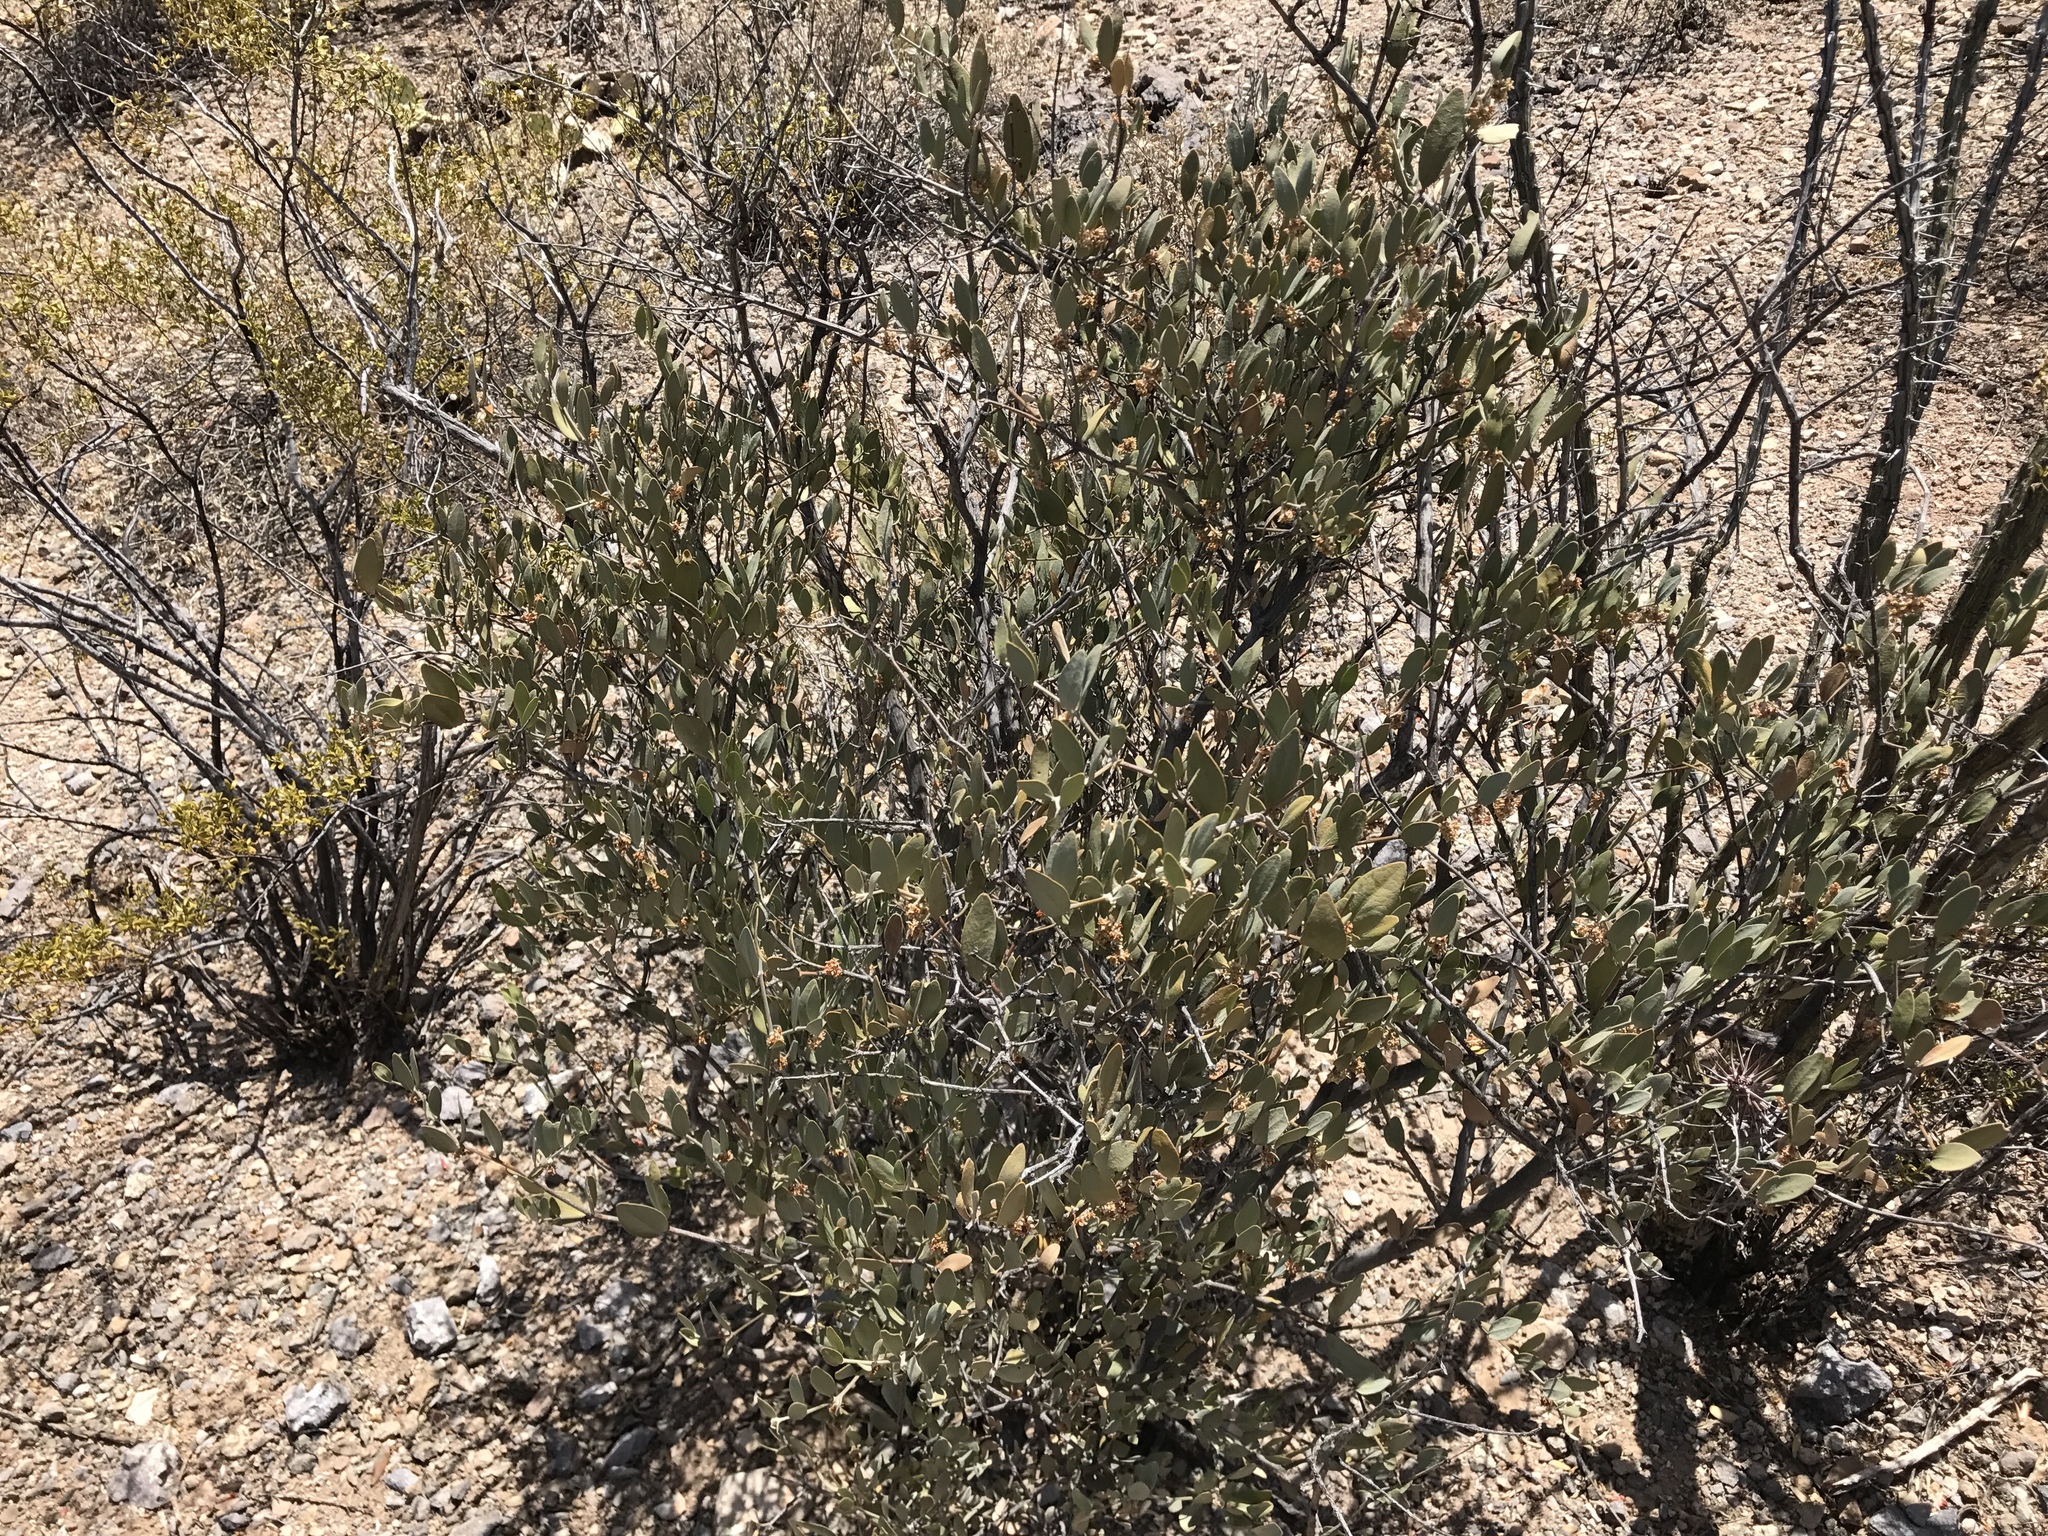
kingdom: Plantae
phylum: Tracheophyta
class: Magnoliopsida
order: Caryophyllales
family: Simmondsiaceae
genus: Simmondsia
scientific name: Simmondsia chinensis
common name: Jojoba
